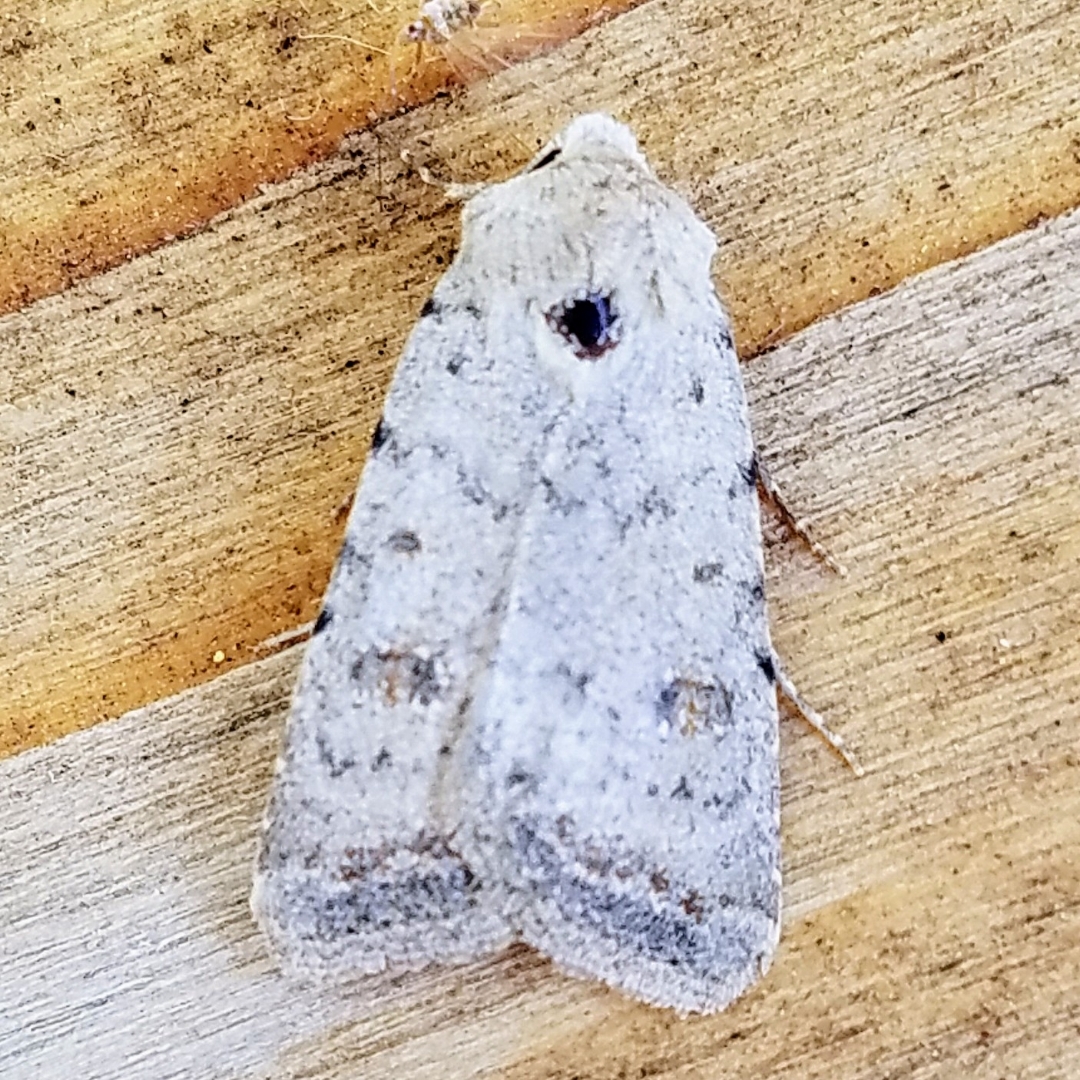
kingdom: Animalia
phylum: Arthropoda
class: Insecta
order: Lepidoptera
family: Noctuidae
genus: Caradrina
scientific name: Caradrina montana
